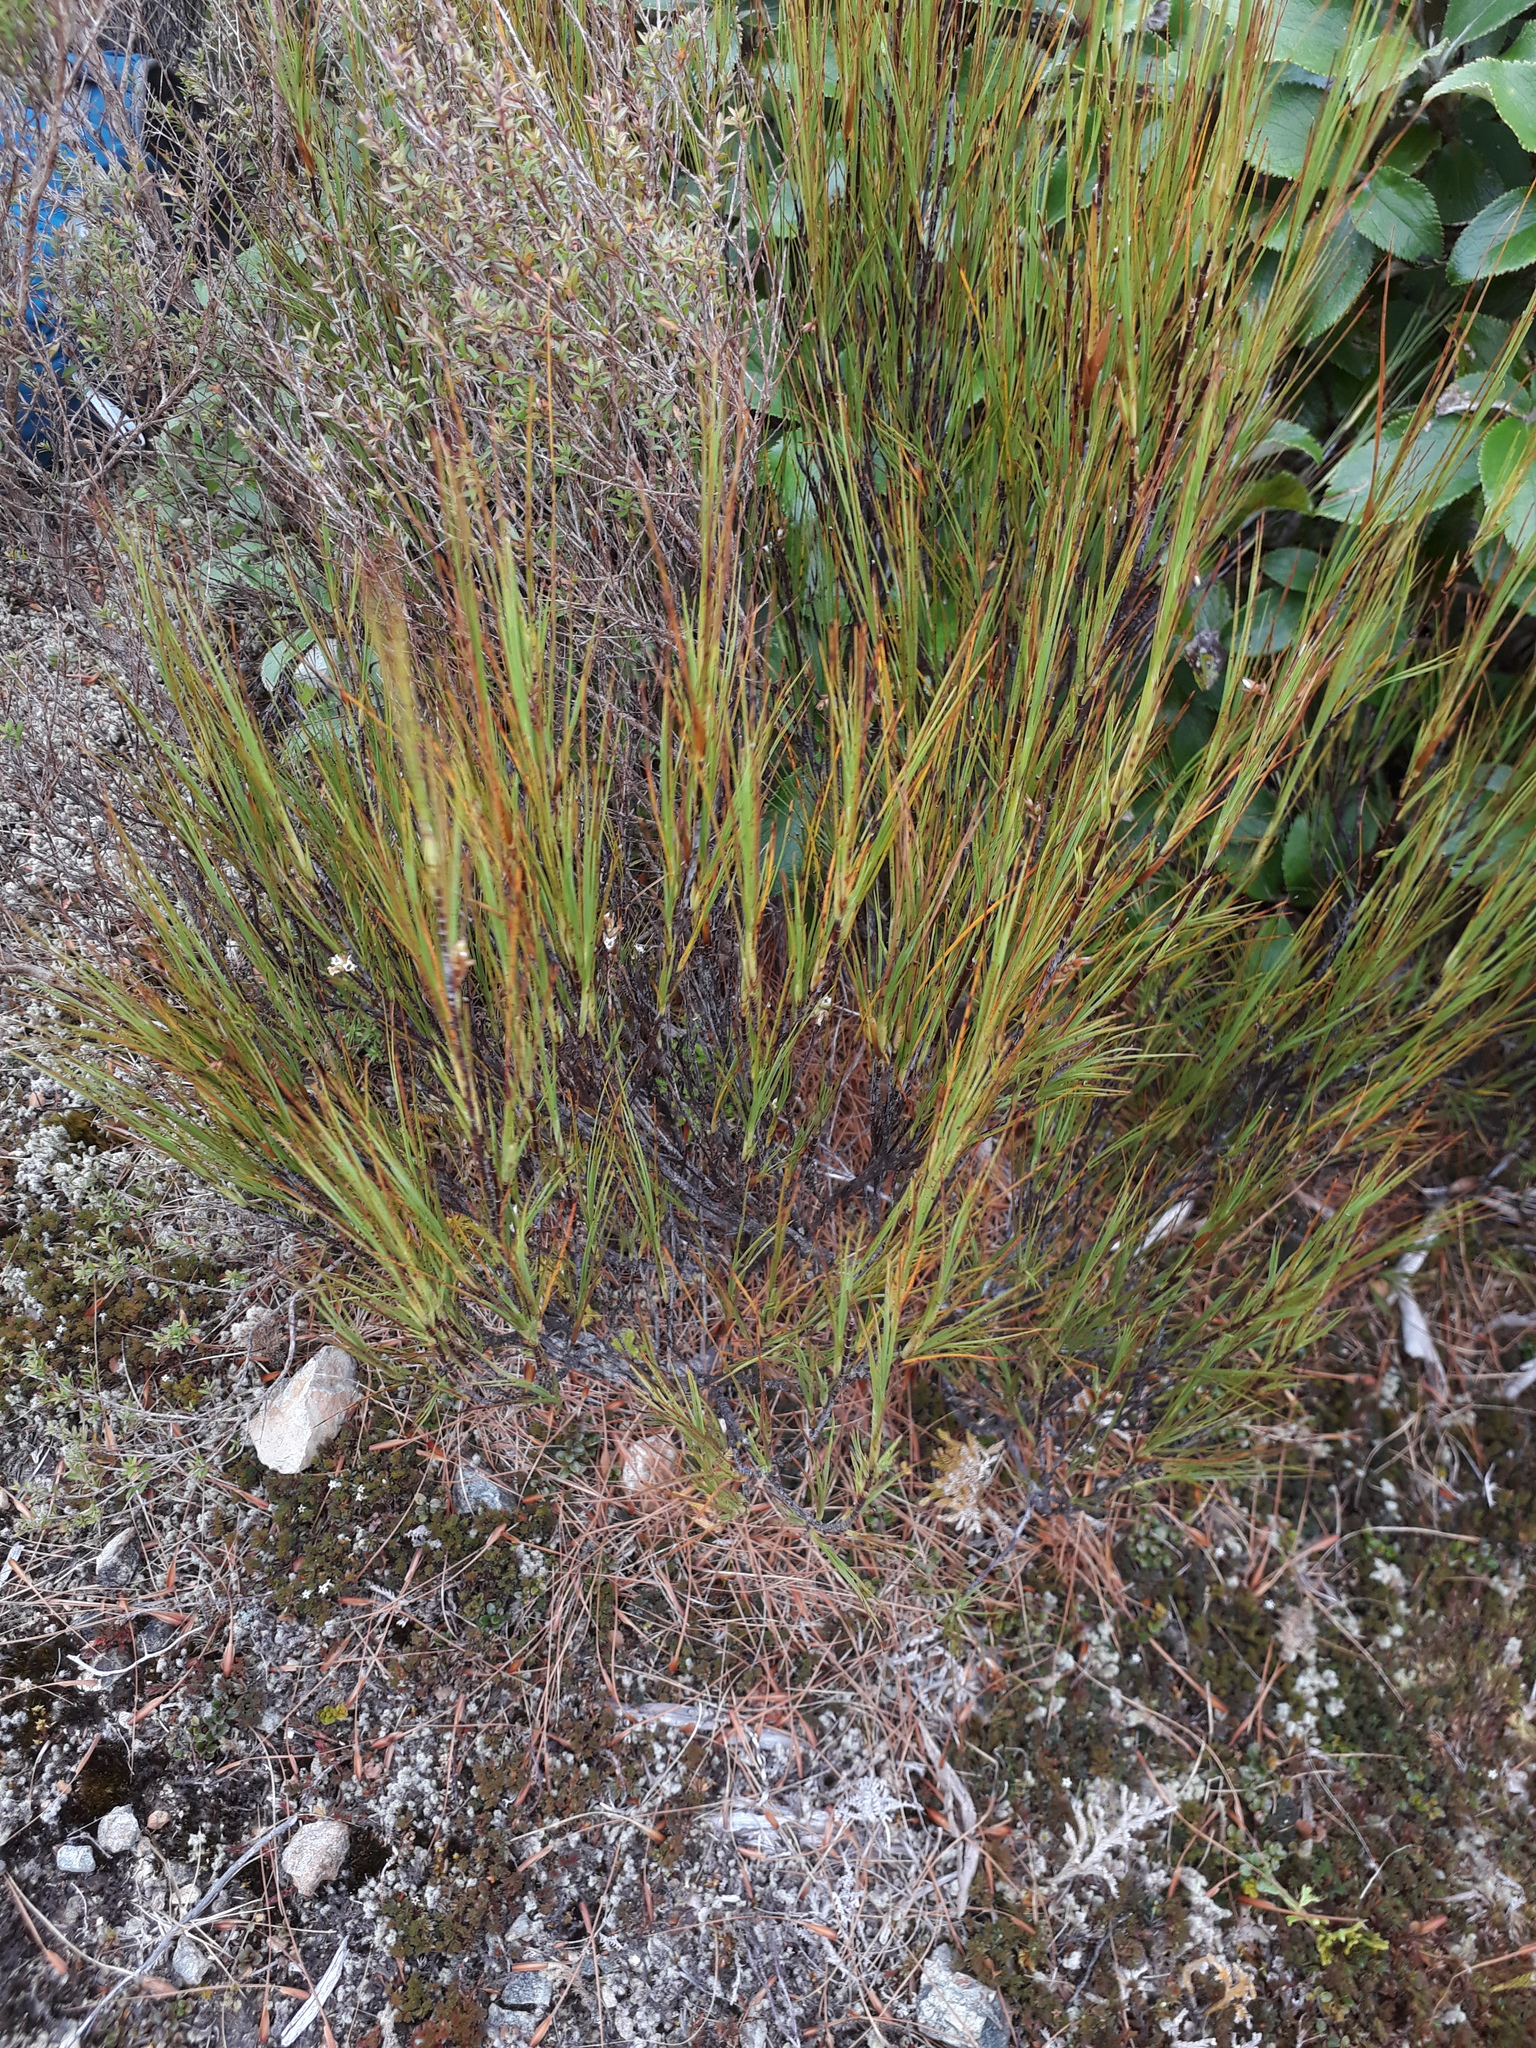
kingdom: Plantae
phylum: Tracheophyta
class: Magnoliopsida
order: Ericales
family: Ericaceae
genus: Dracophyllum
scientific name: Dracophyllum filifolium
